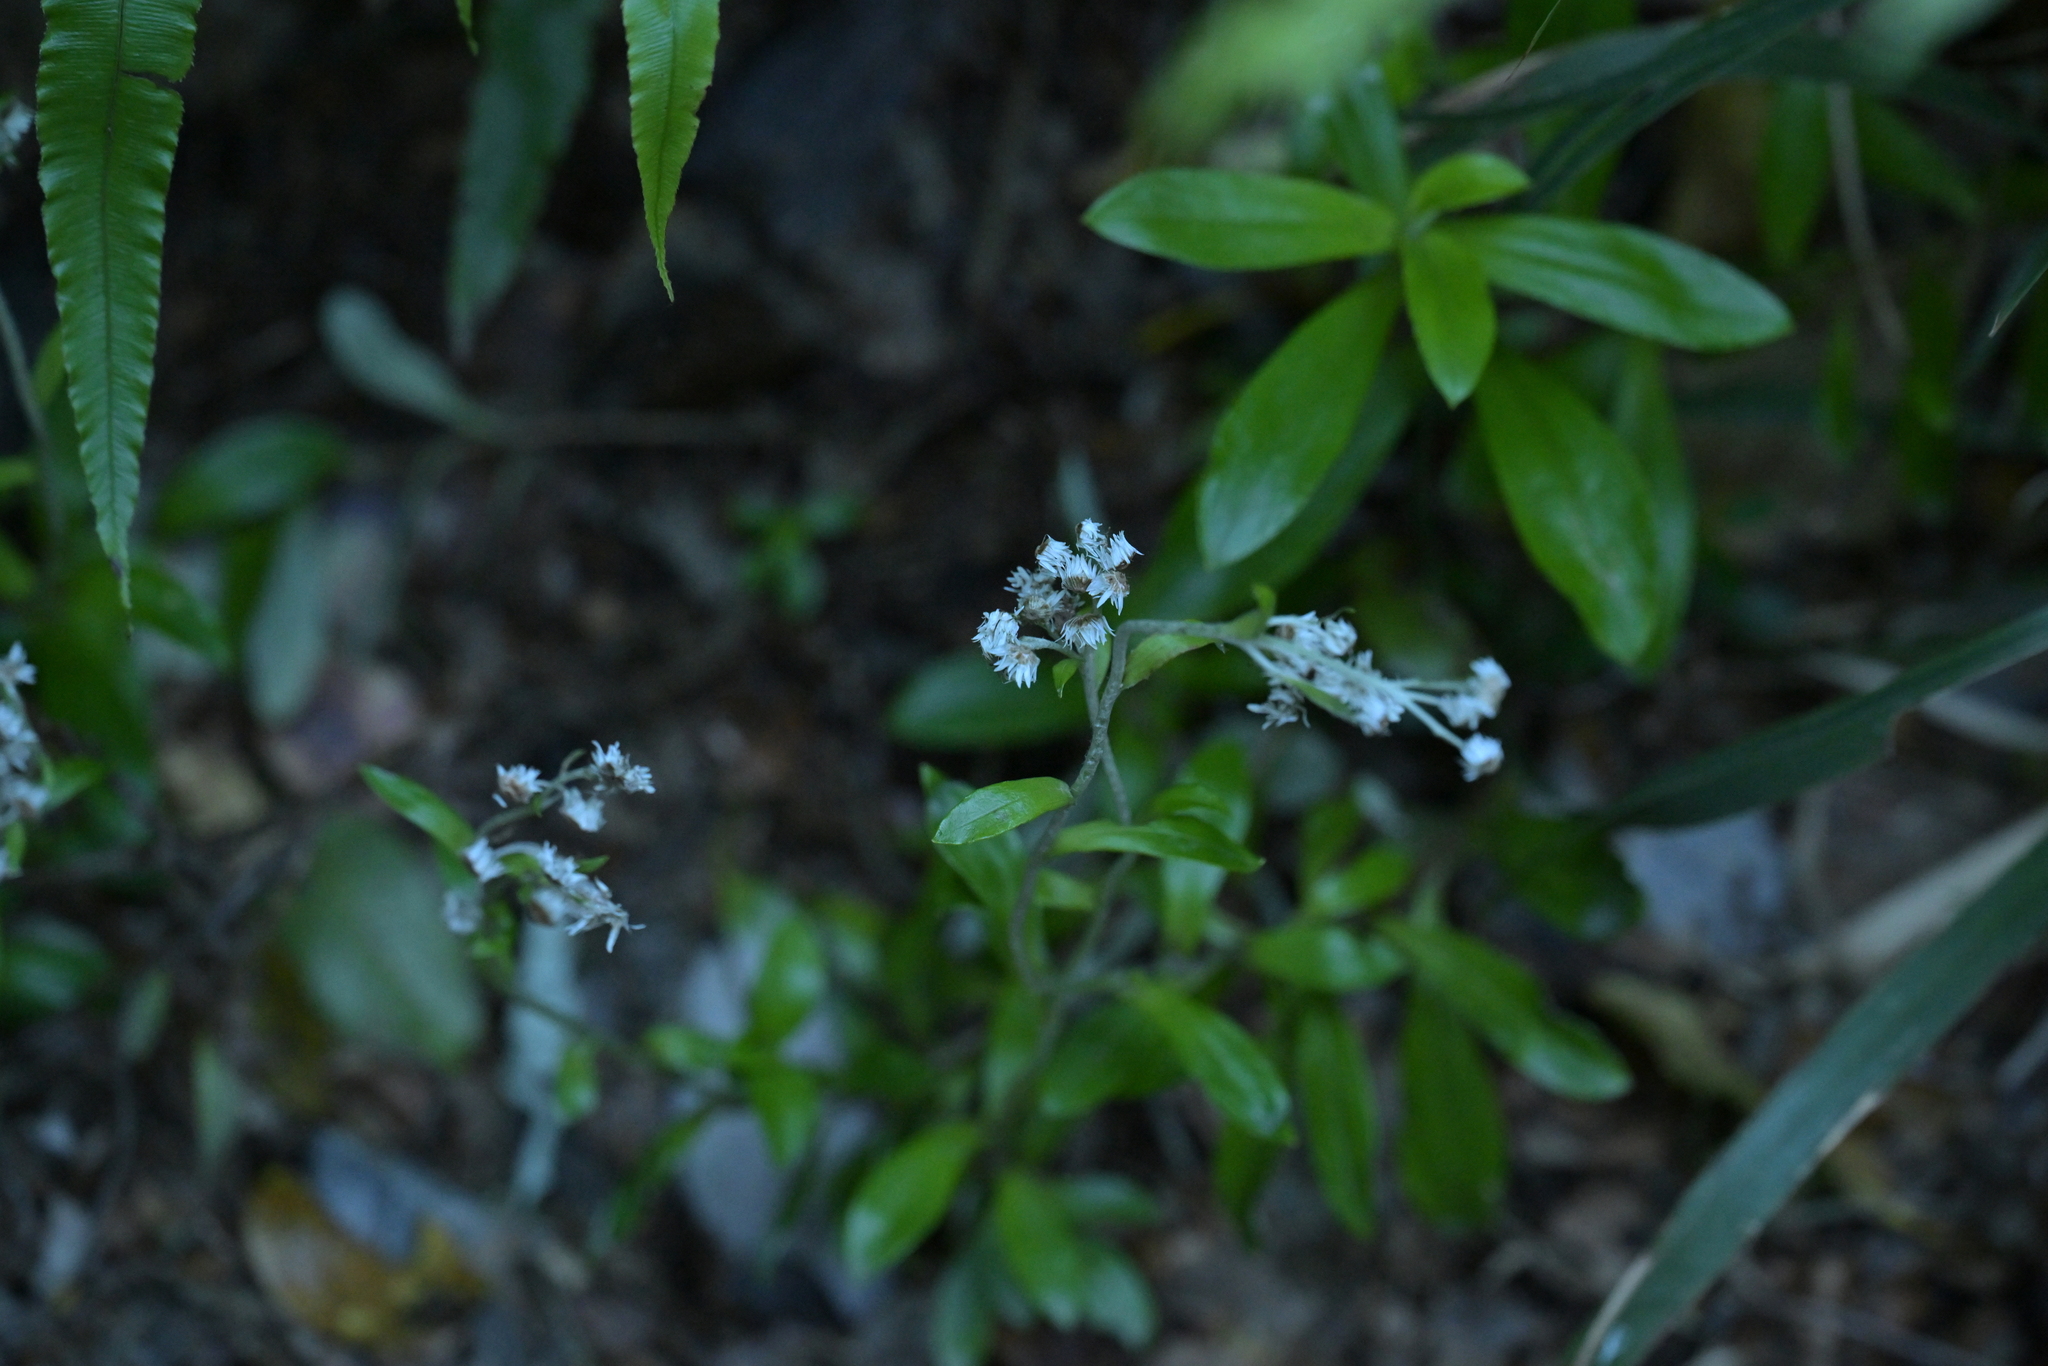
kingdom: Plantae
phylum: Tracheophyta
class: Magnoliopsida
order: Asterales
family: Asteraceae
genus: Anaphalioides
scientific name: Anaphalioides trinervis
